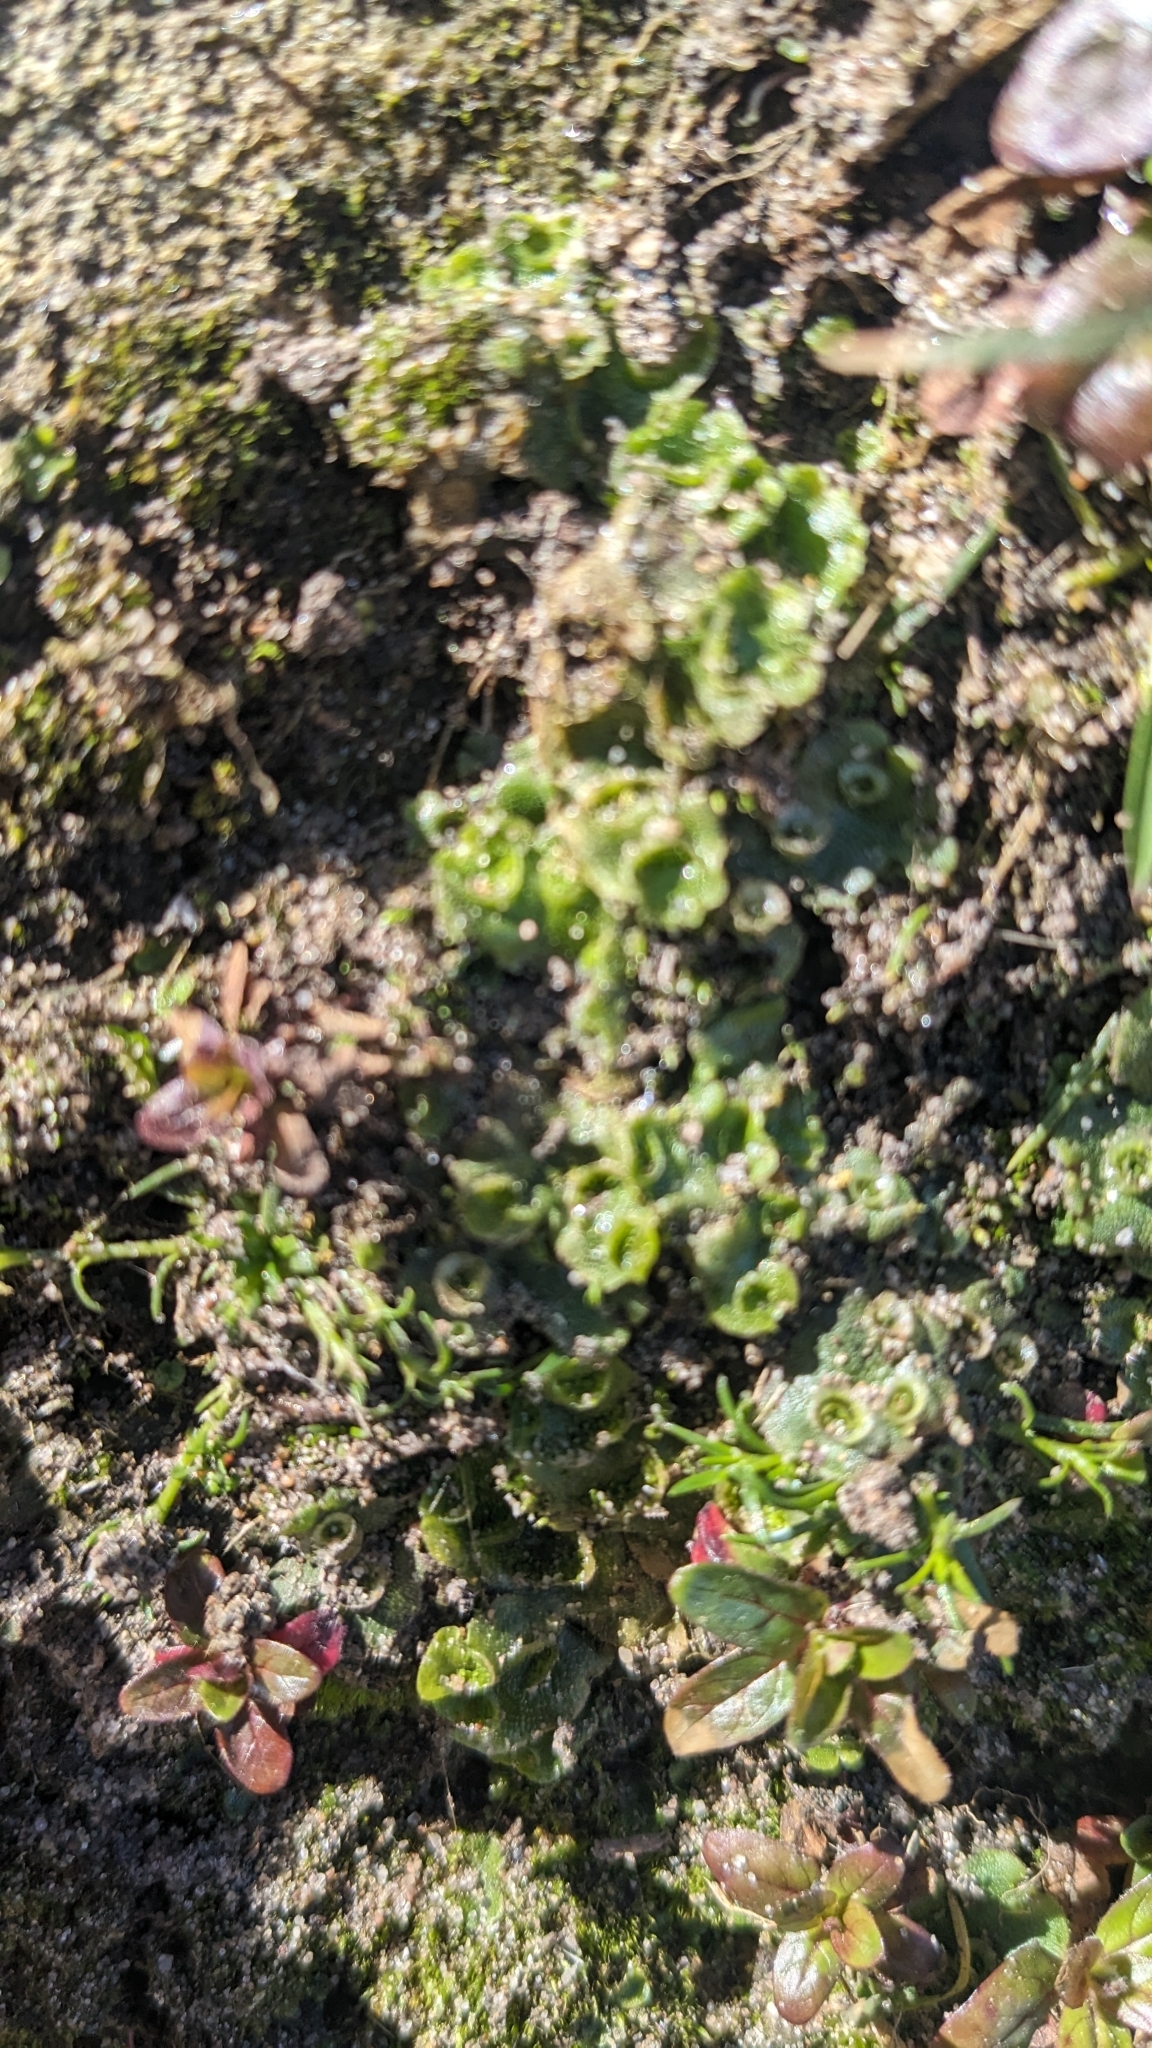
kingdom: Plantae
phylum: Marchantiophyta
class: Marchantiopsida
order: Lunulariales
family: Lunulariaceae
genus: Lunularia
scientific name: Lunularia cruciata
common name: Crescent-cup liverwort
